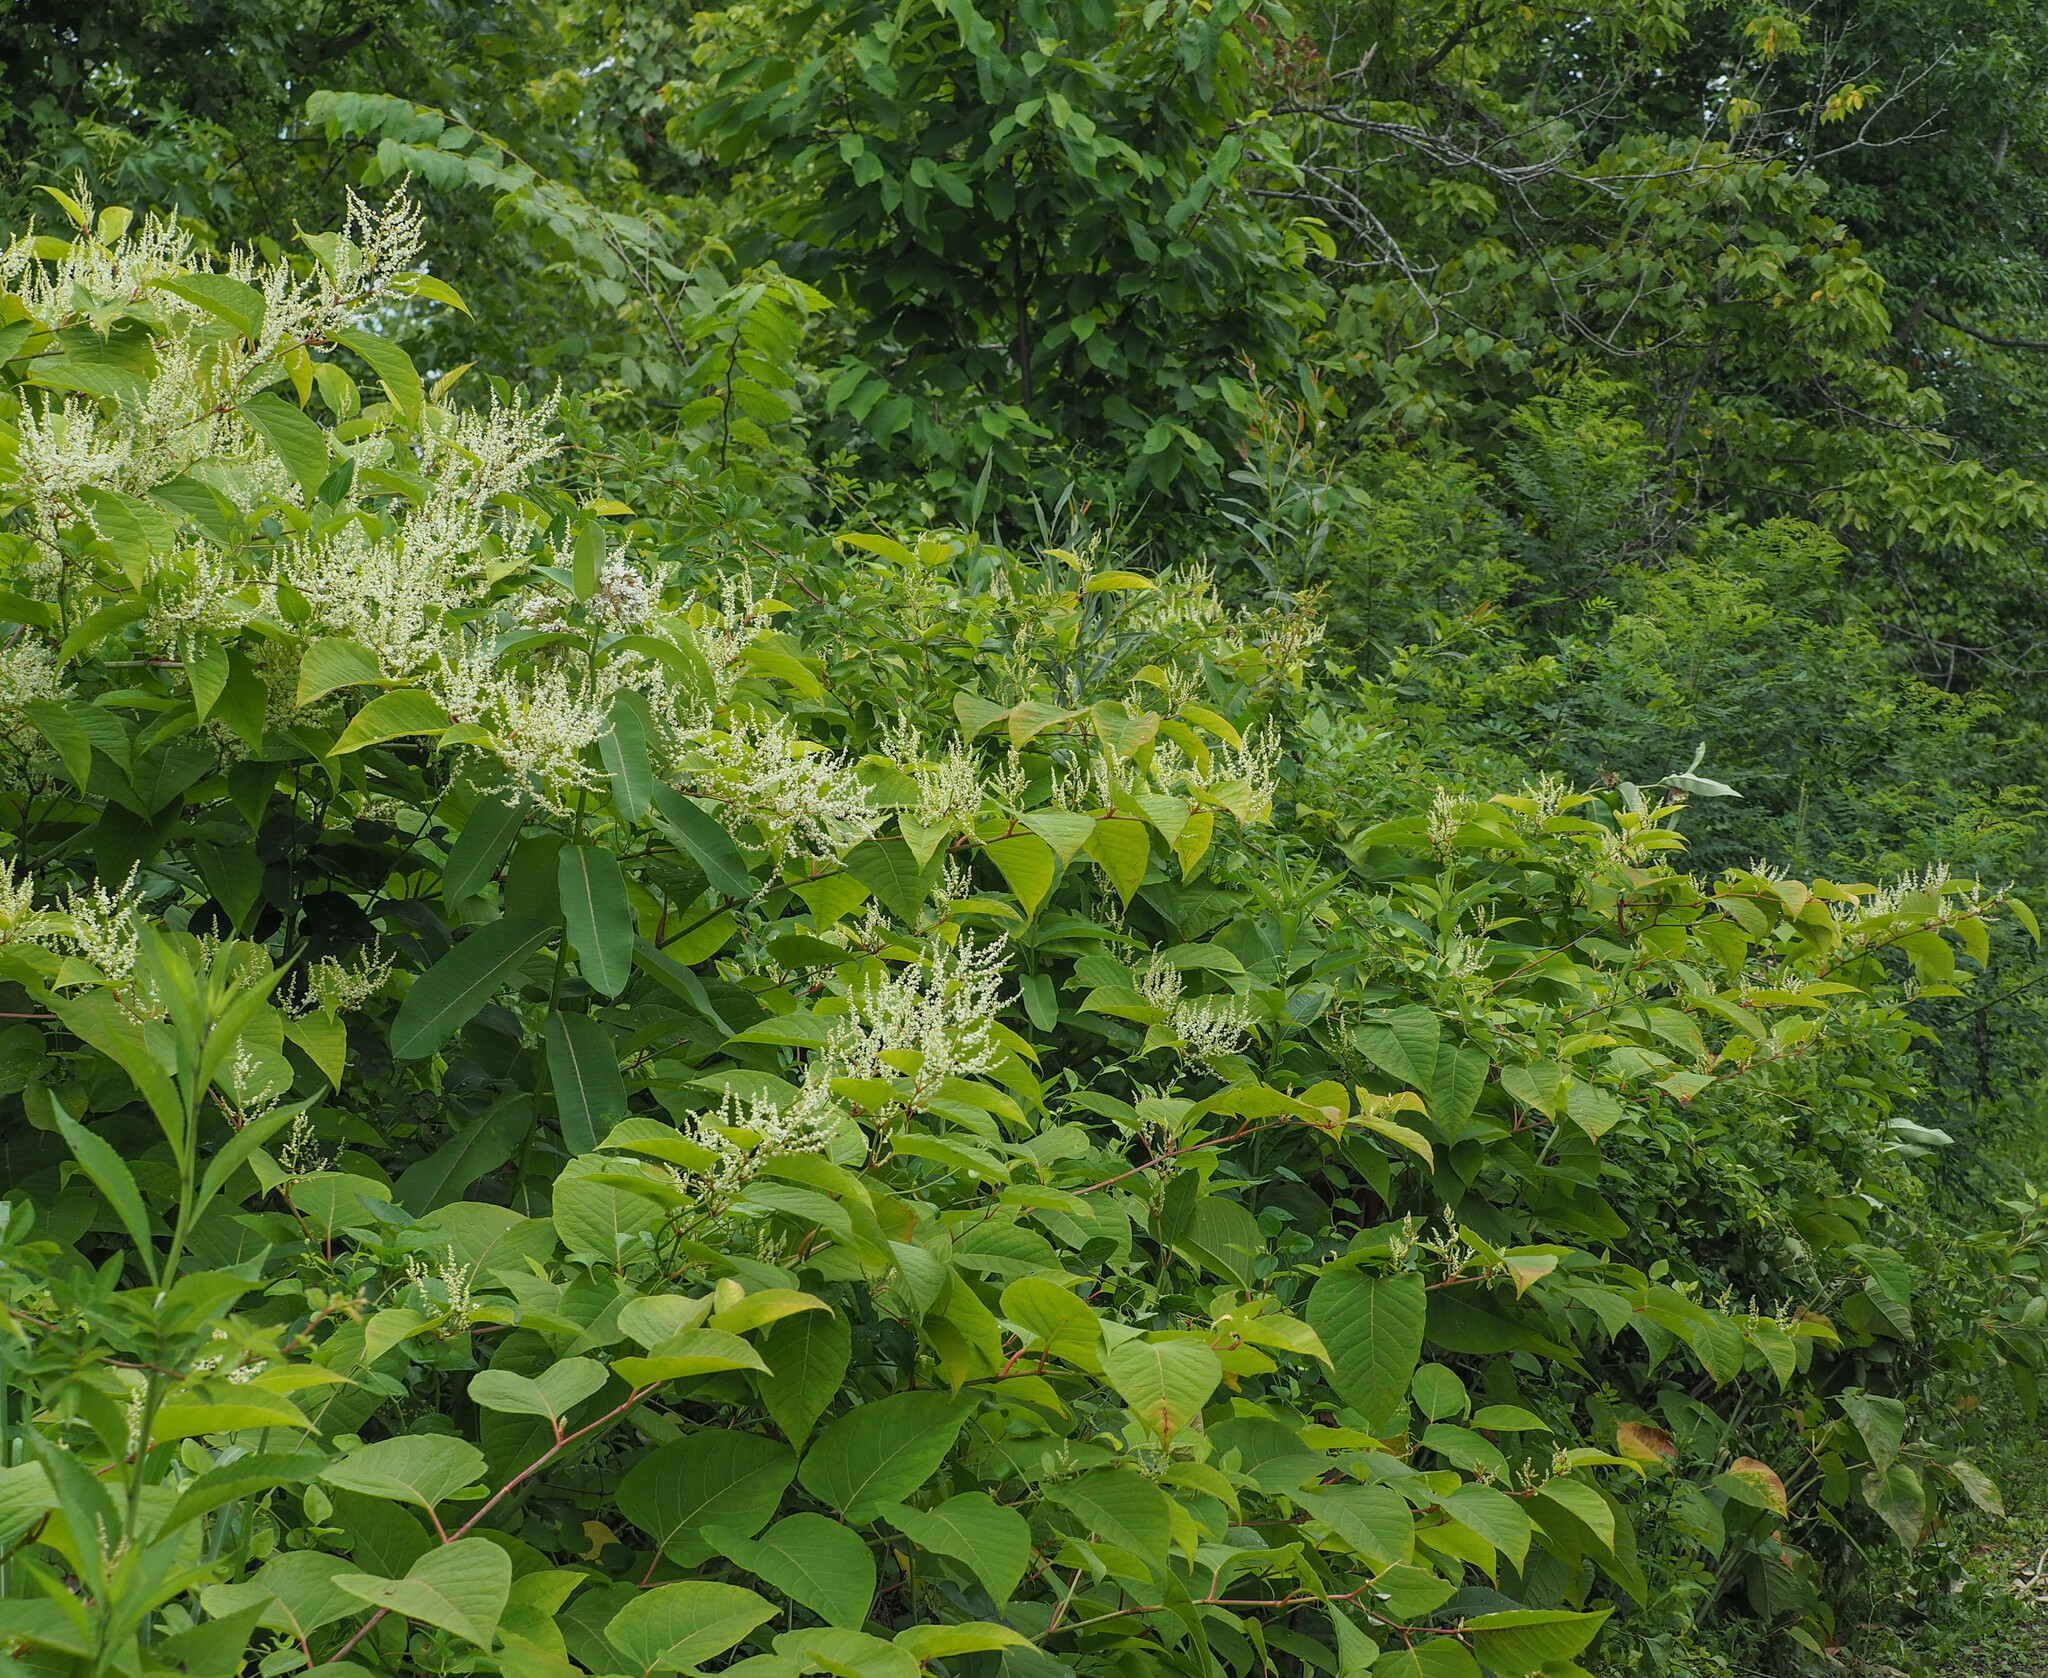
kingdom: Plantae
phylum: Tracheophyta
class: Magnoliopsida
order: Caryophyllales
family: Polygonaceae
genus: Reynoutria
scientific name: Reynoutria japonica
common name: Japanese knotweed
